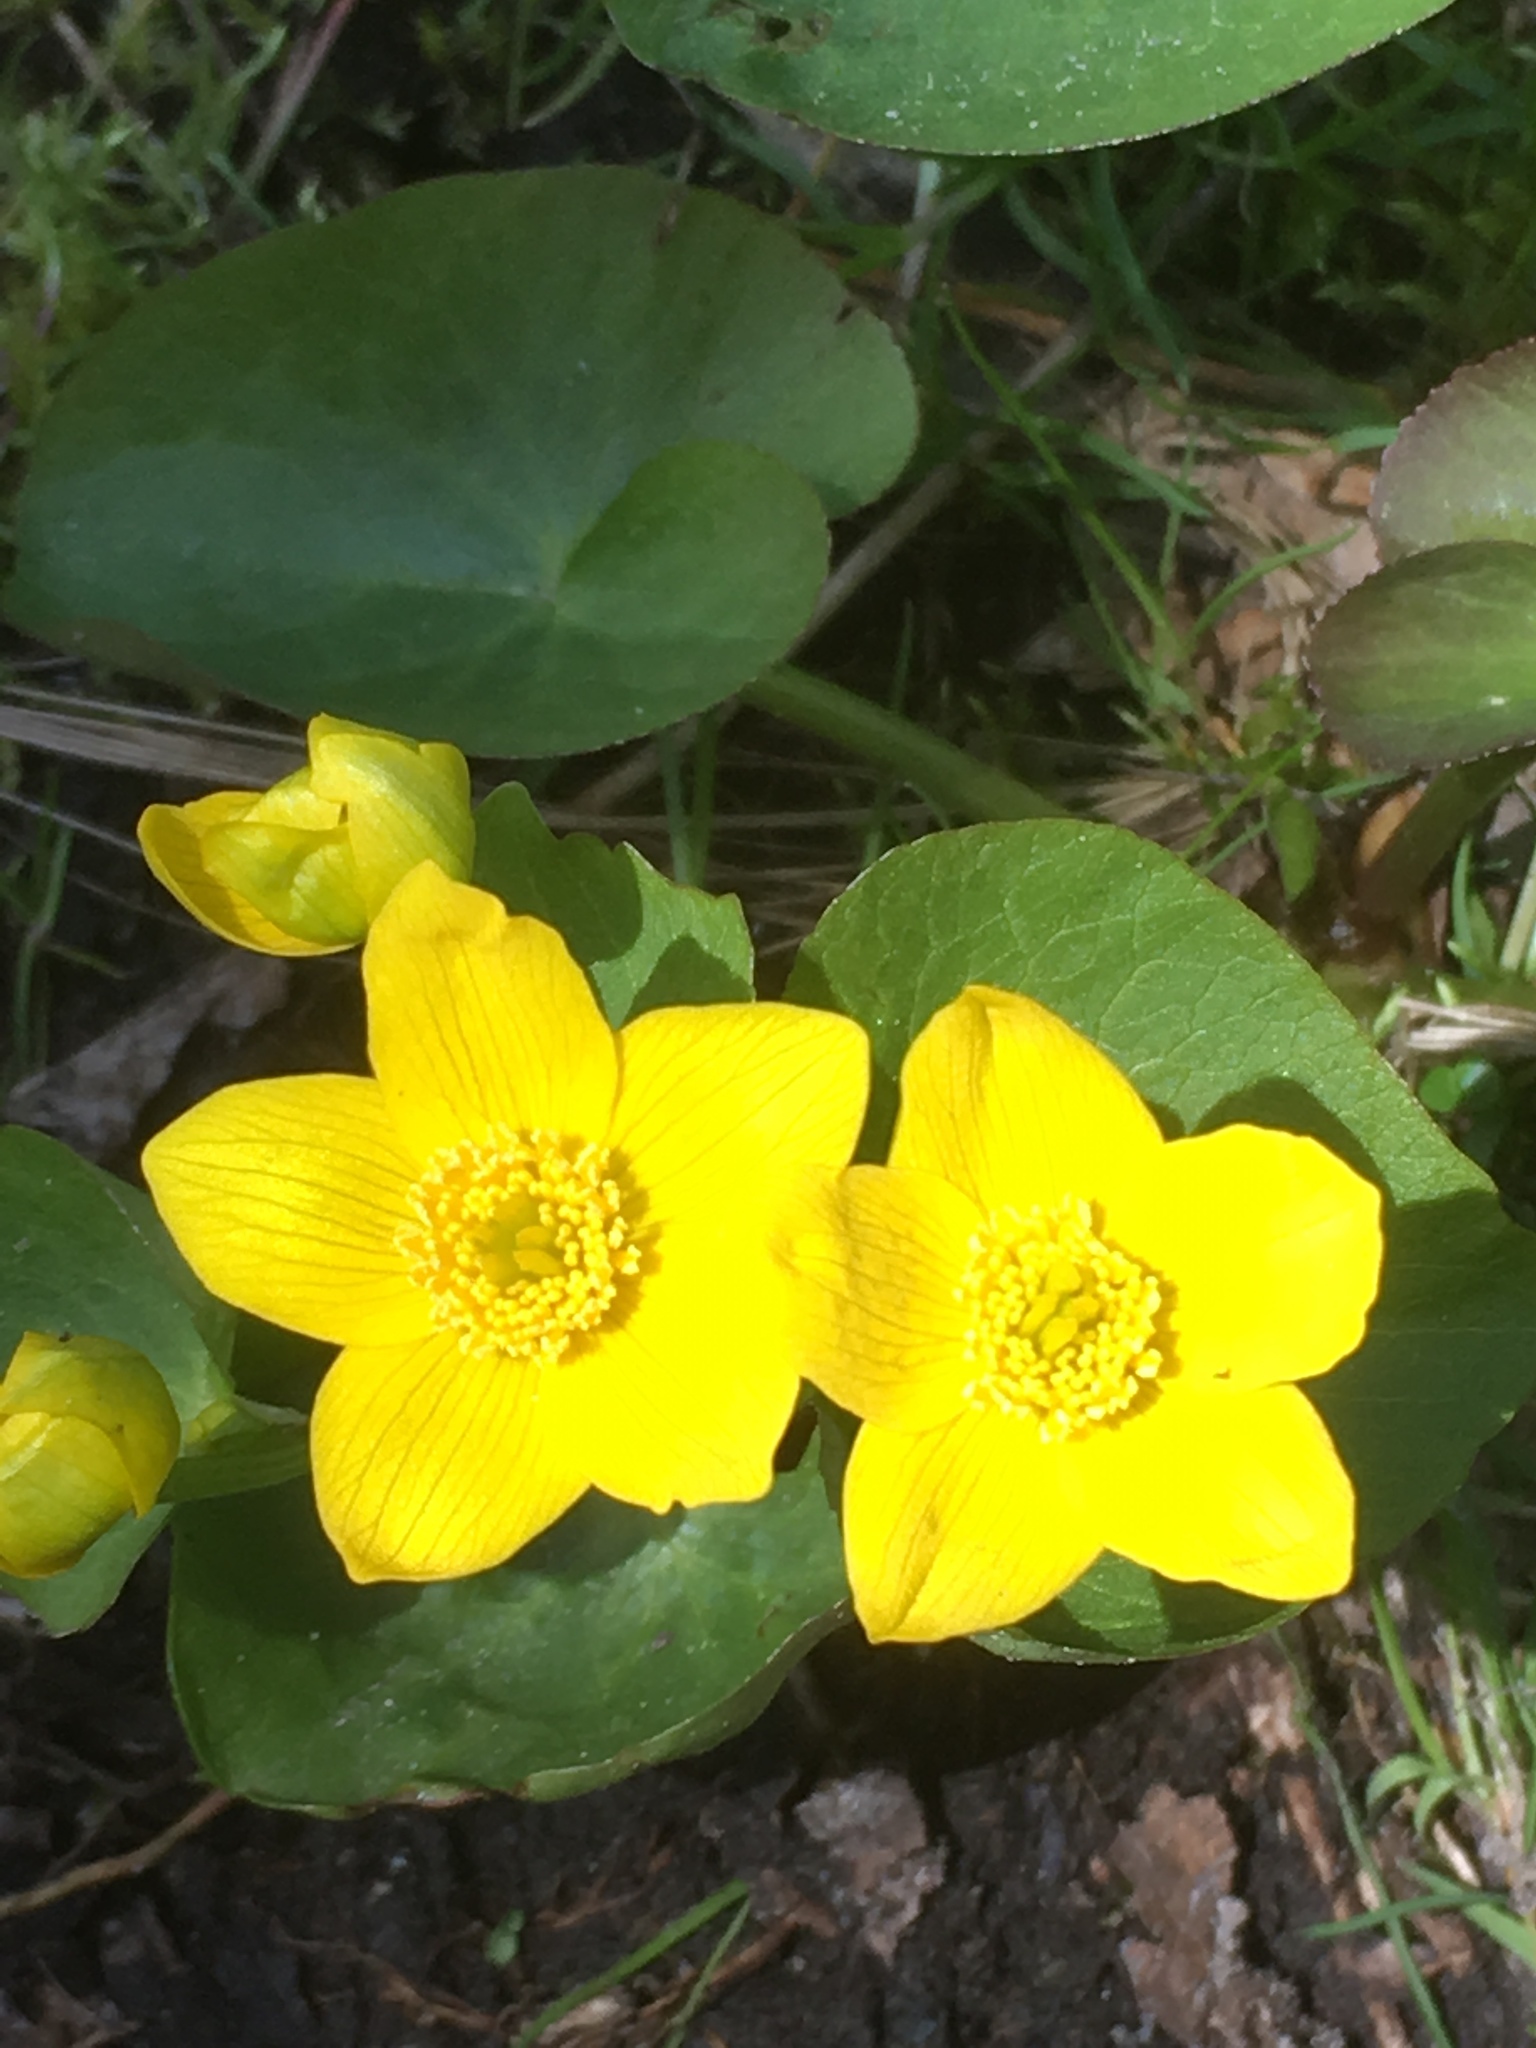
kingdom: Plantae
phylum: Tracheophyta
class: Magnoliopsida
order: Ranunculales
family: Ranunculaceae
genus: Caltha
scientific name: Caltha palustris
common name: Marsh marigold
